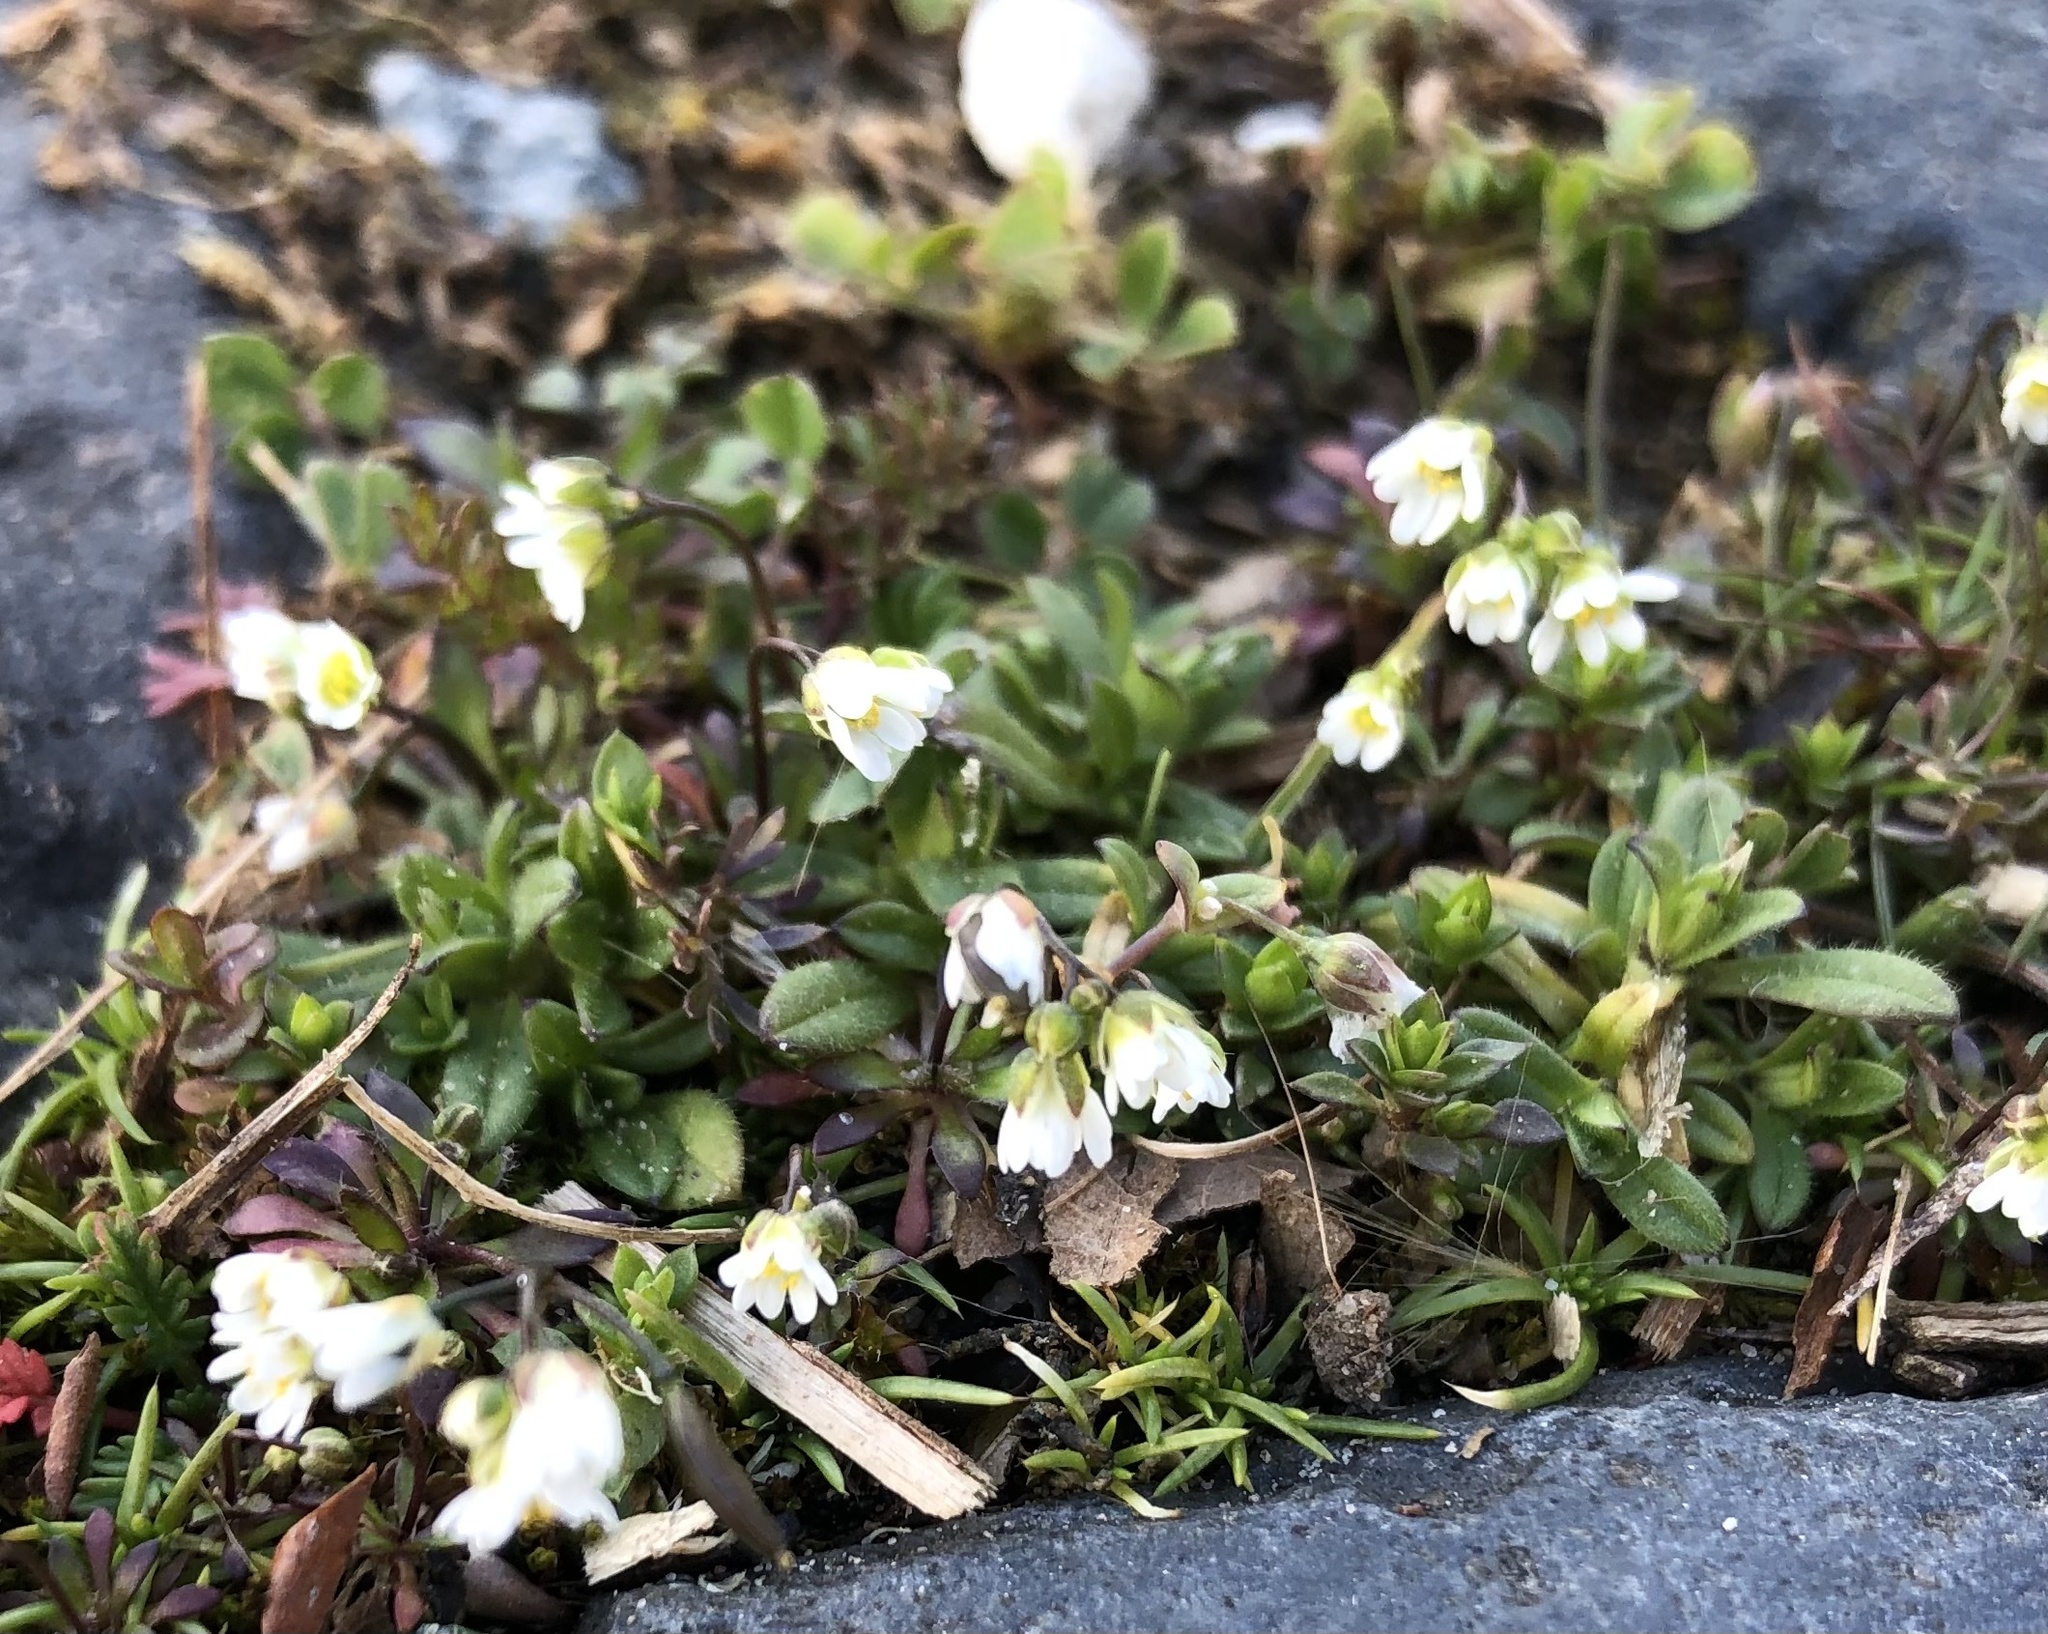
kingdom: Plantae
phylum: Tracheophyta
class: Magnoliopsida
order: Brassicales
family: Brassicaceae
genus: Draba
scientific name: Draba verna
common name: Spring draba
